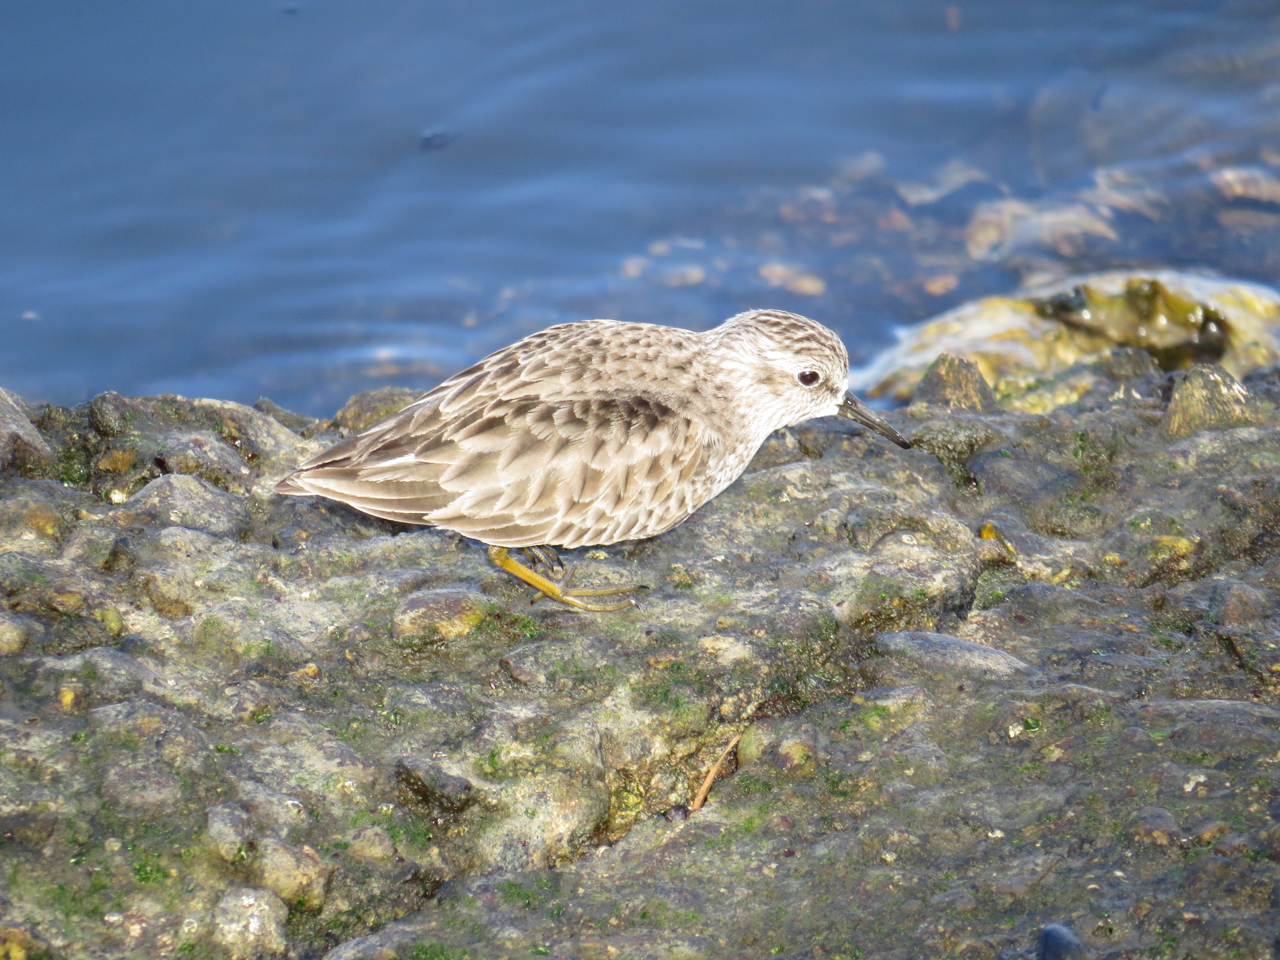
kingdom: Animalia
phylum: Chordata
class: Aves
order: Charadriiformes
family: Scolopacidae
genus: Calidris
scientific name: Calidris minutilla
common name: Least sandpiper
